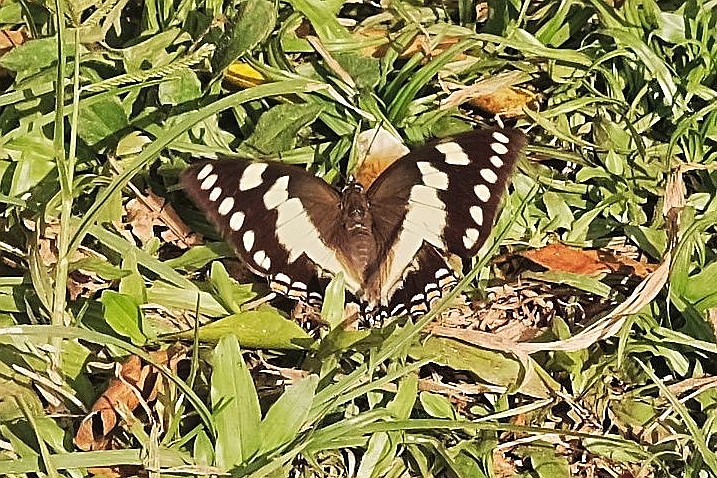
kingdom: Animalia
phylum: Arthropoda
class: Insecta
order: Lepidoptera
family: Nymphalidae
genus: Polyura
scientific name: Polyura sacco
